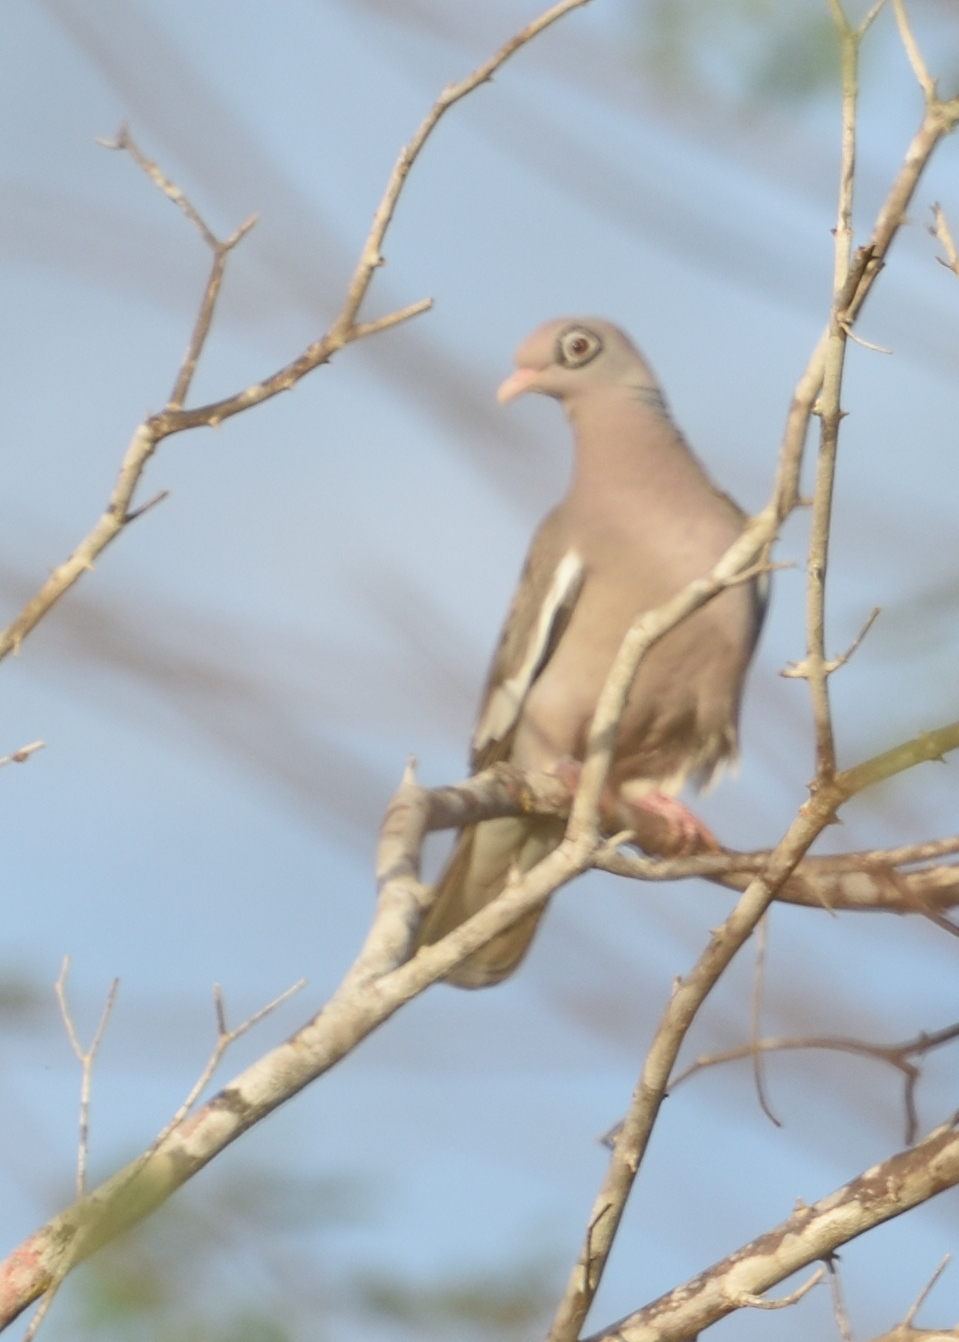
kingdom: Animalia
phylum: Chordata
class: Aves
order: Columbiformes
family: Columbidae
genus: Patagioenas
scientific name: Patagioenas corensis
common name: Bare-eyed pigeon
